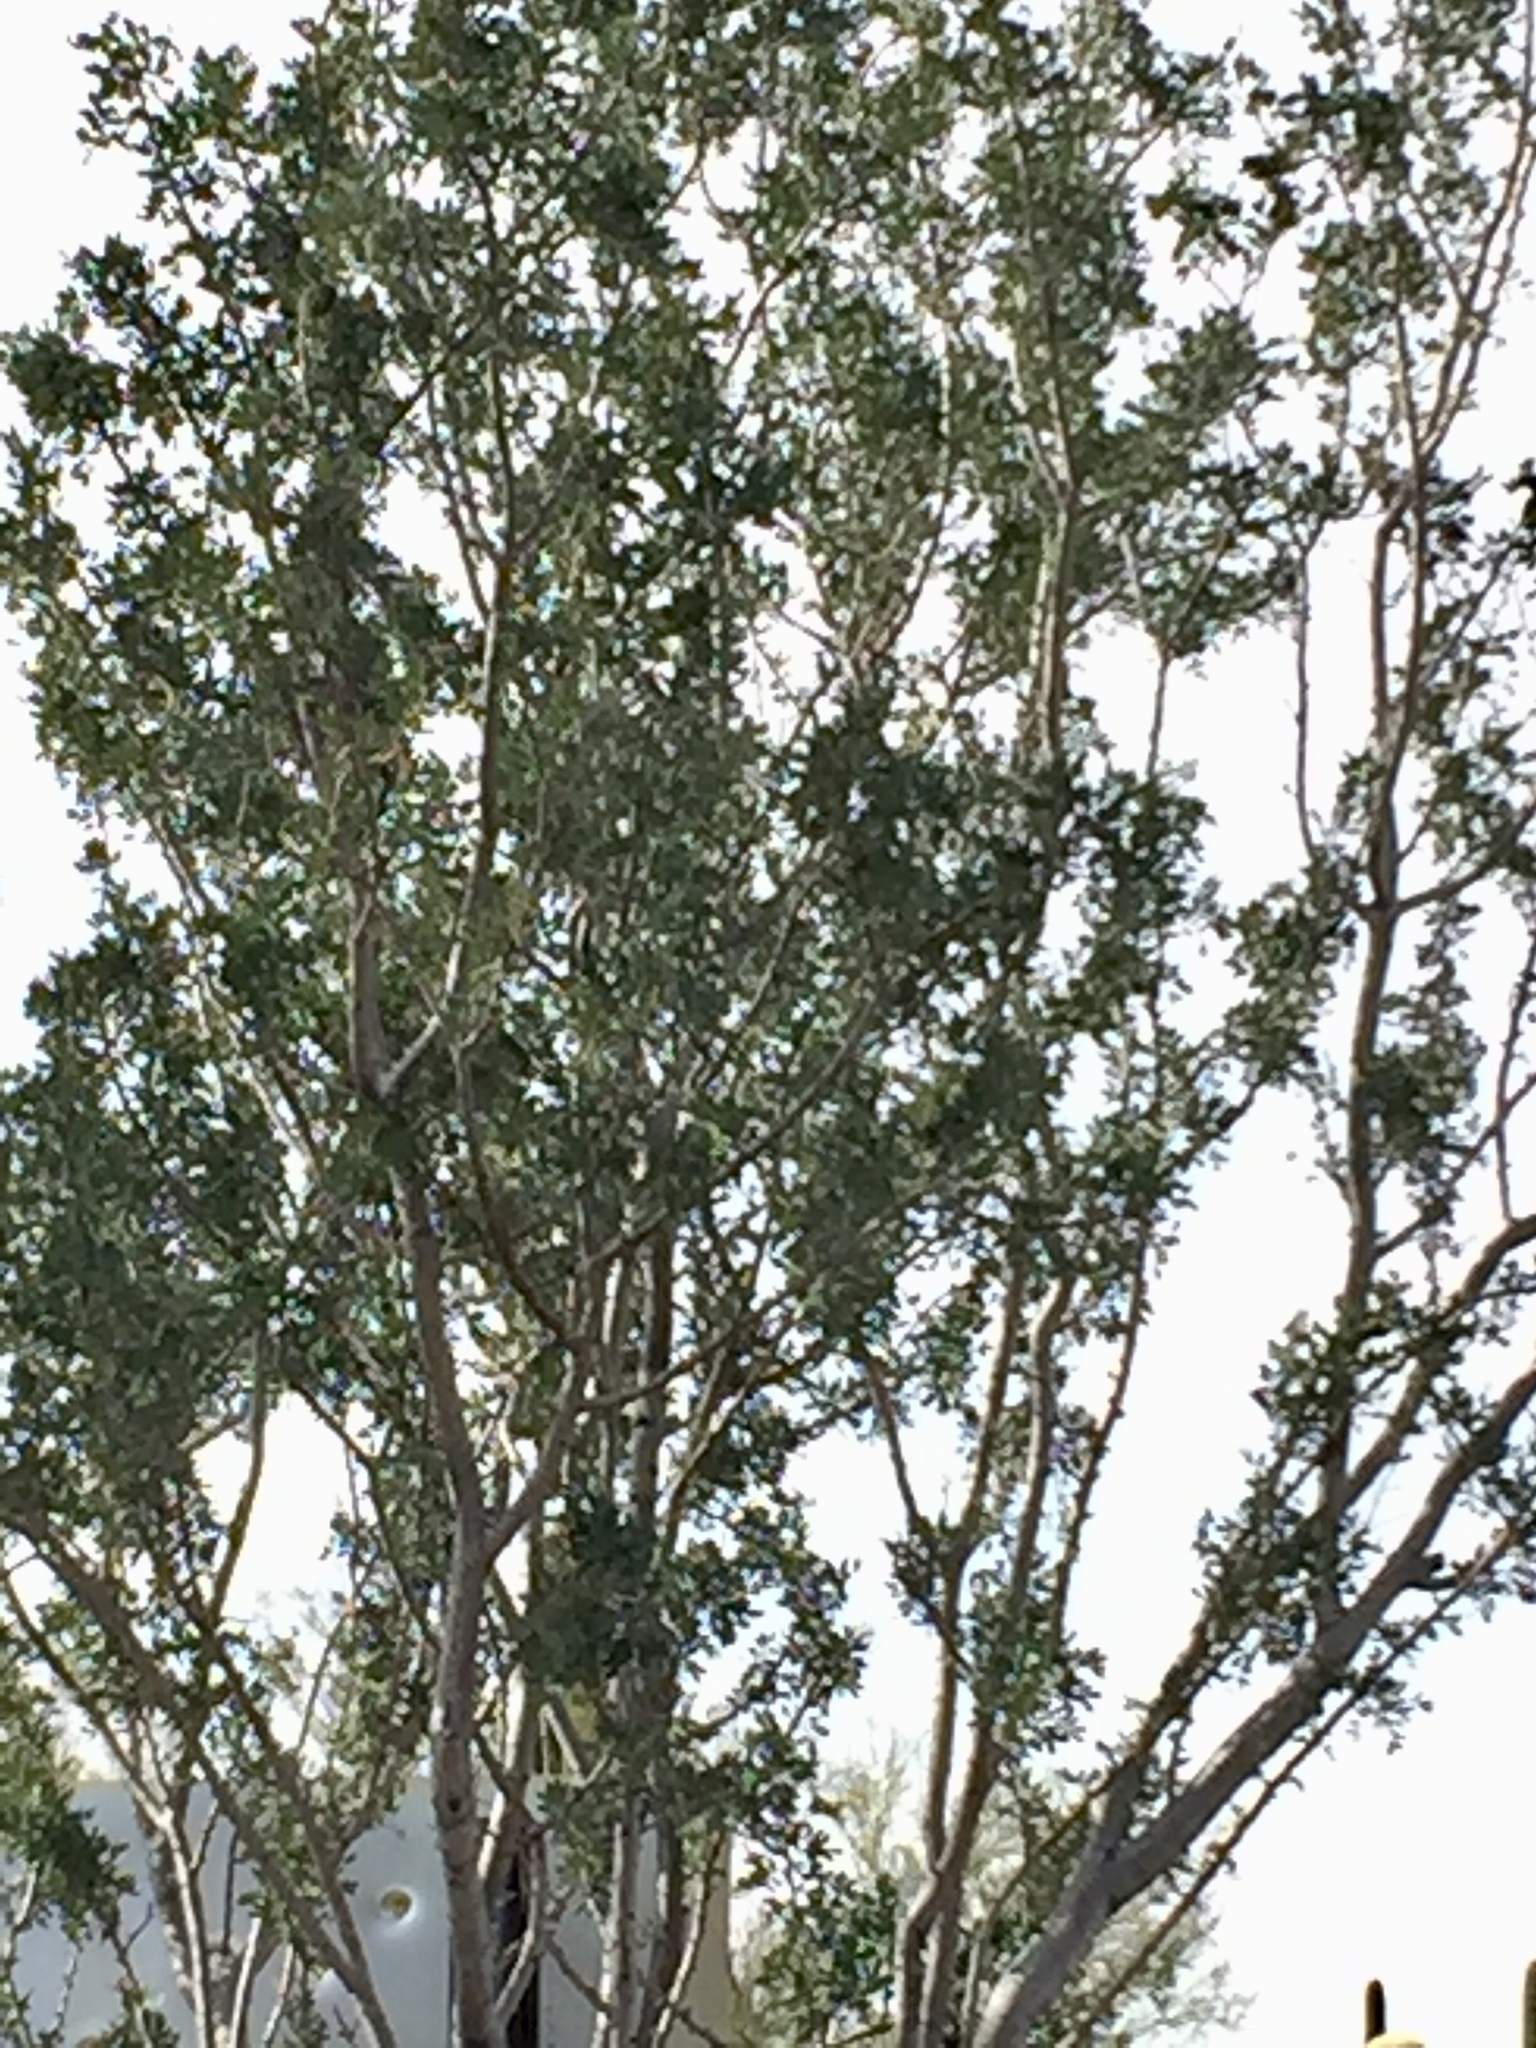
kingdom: Plantae
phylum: Tracheophyta
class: Magnoliopsida
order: Fabales
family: Fabaceae
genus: Olneya
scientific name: Olneya tesota
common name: Desert ironwood
